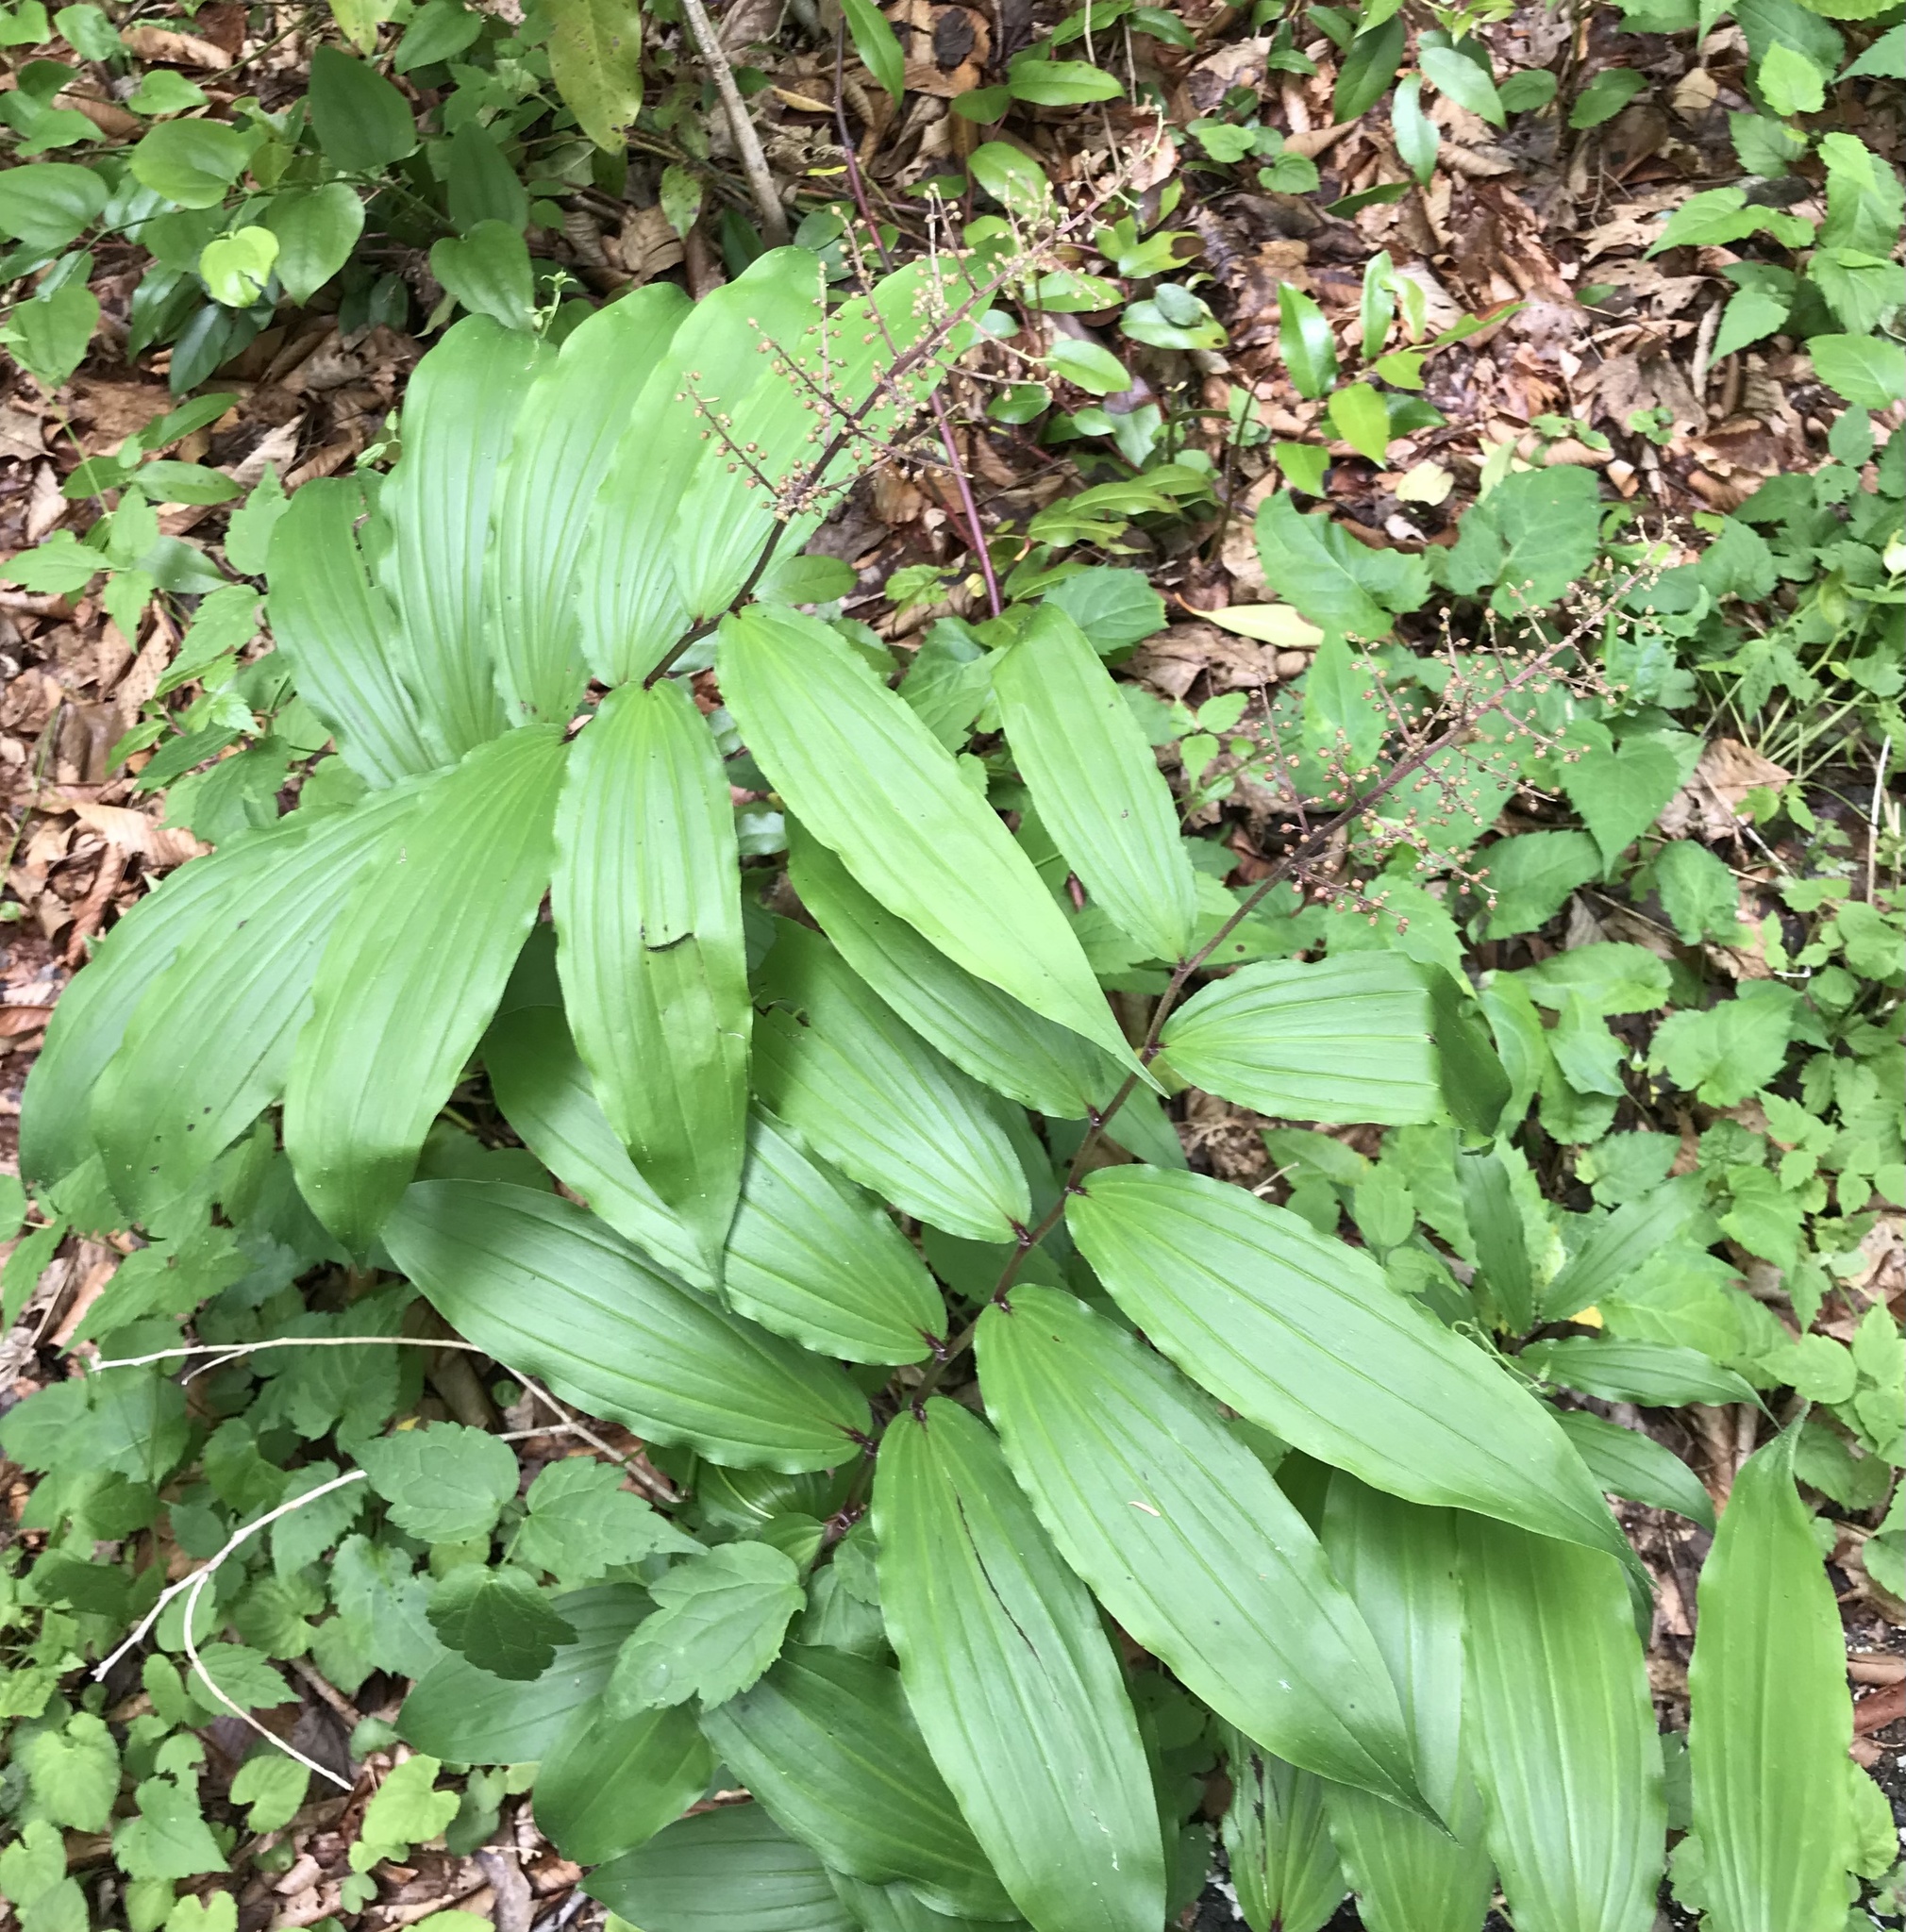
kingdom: Plantae
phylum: Tracheophyta
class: Liliopsida
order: Asparagales
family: Asparagaceae
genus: Maianthemum
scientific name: Maianthemum racemosum
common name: False spikenard
